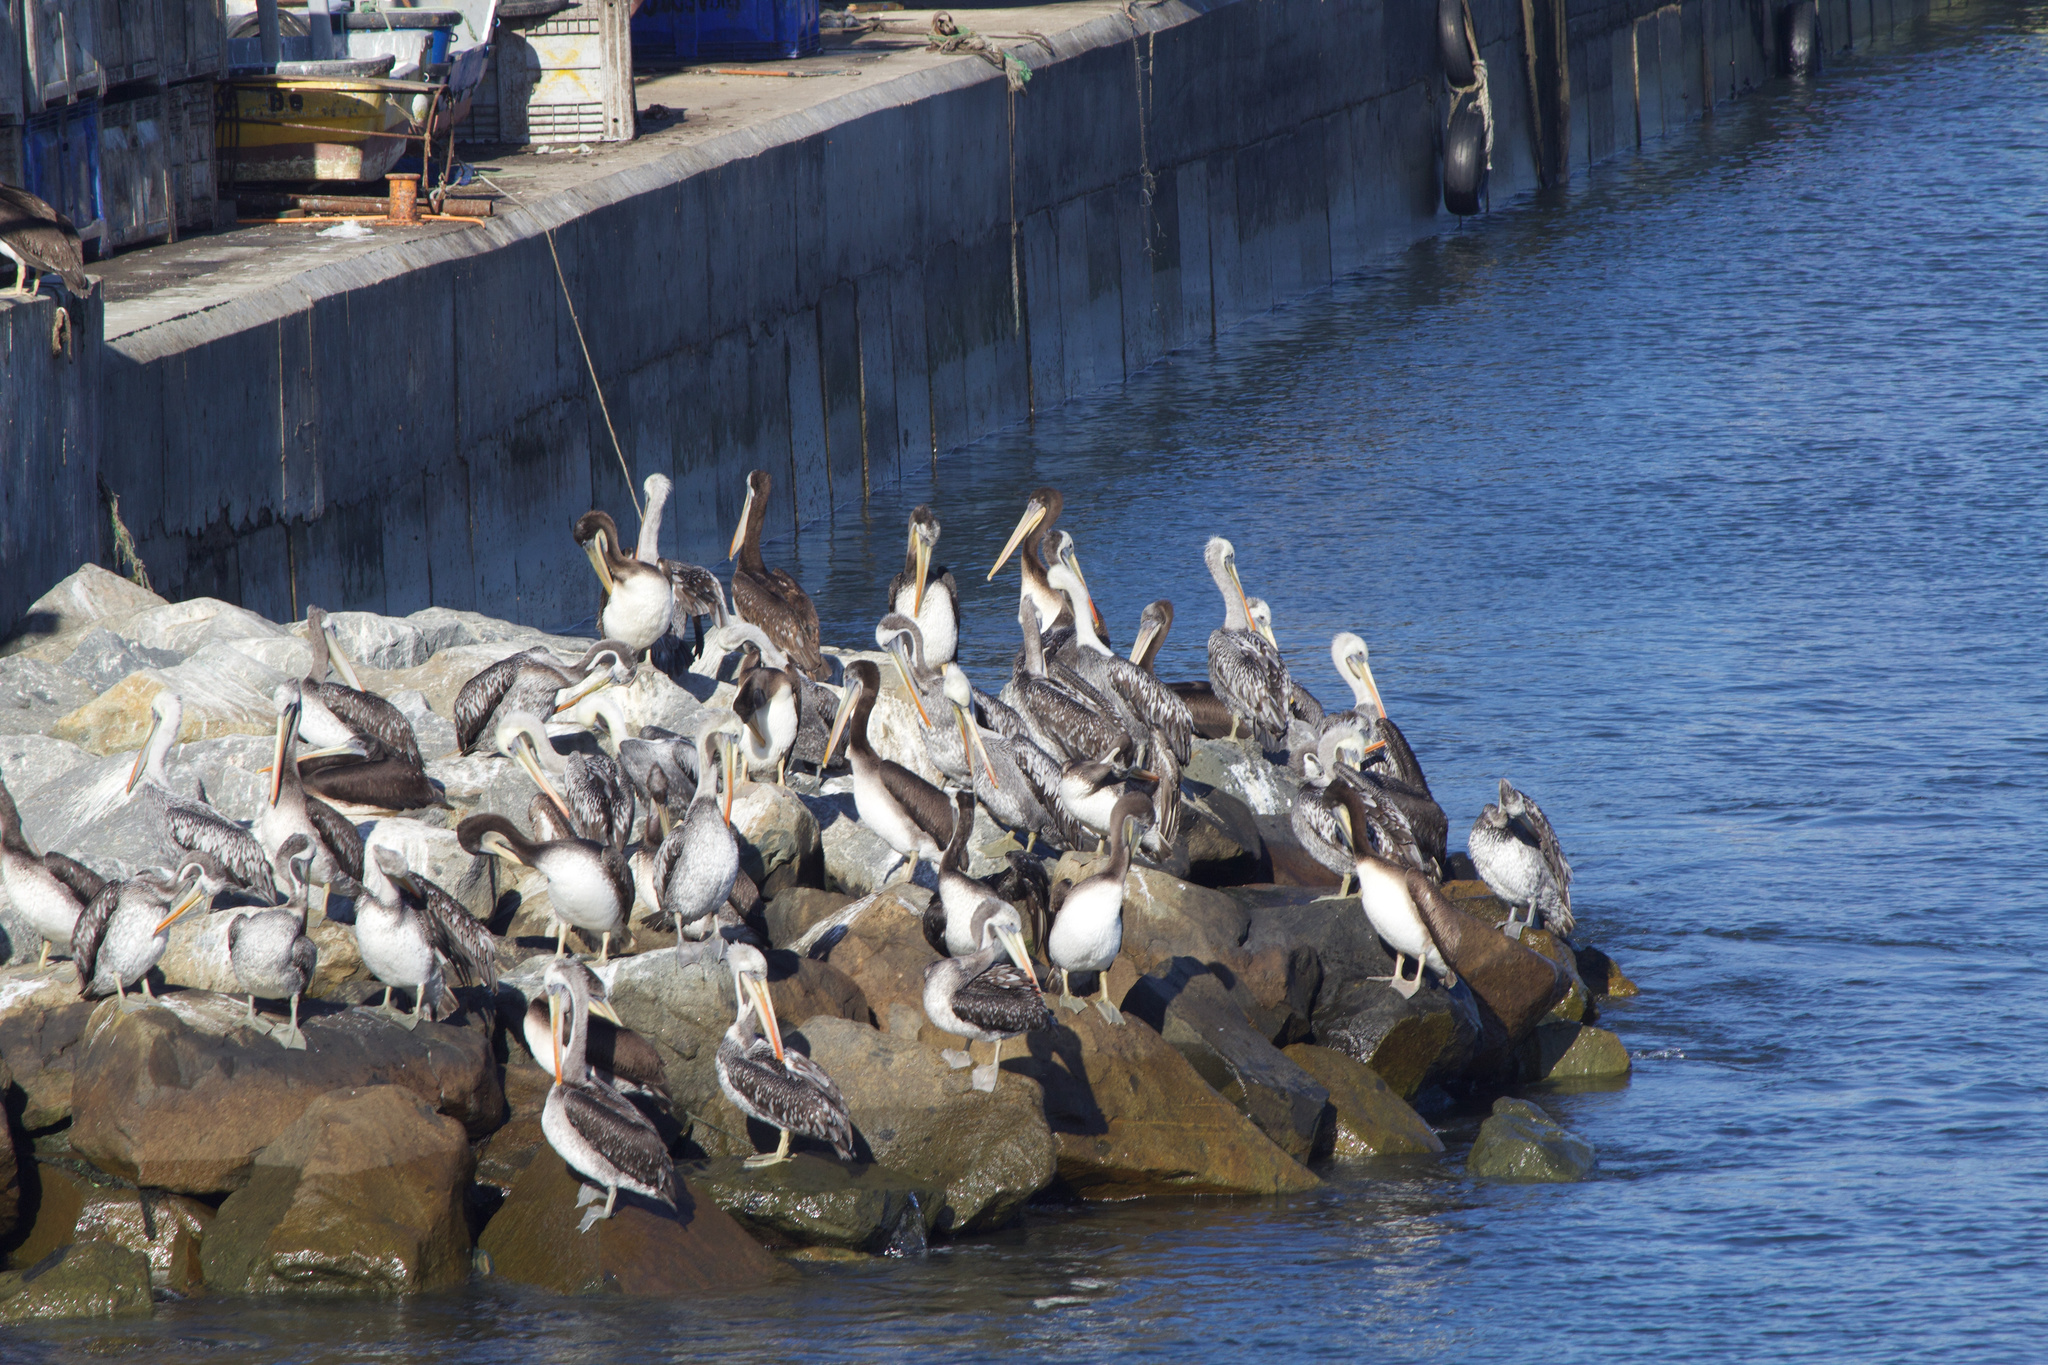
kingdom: Animalia
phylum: Chordata
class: Aves
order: Pelecaniformes
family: Pelecanidae
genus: Pelecanus
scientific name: Pelecanus thagus
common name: Peruvian pelican
